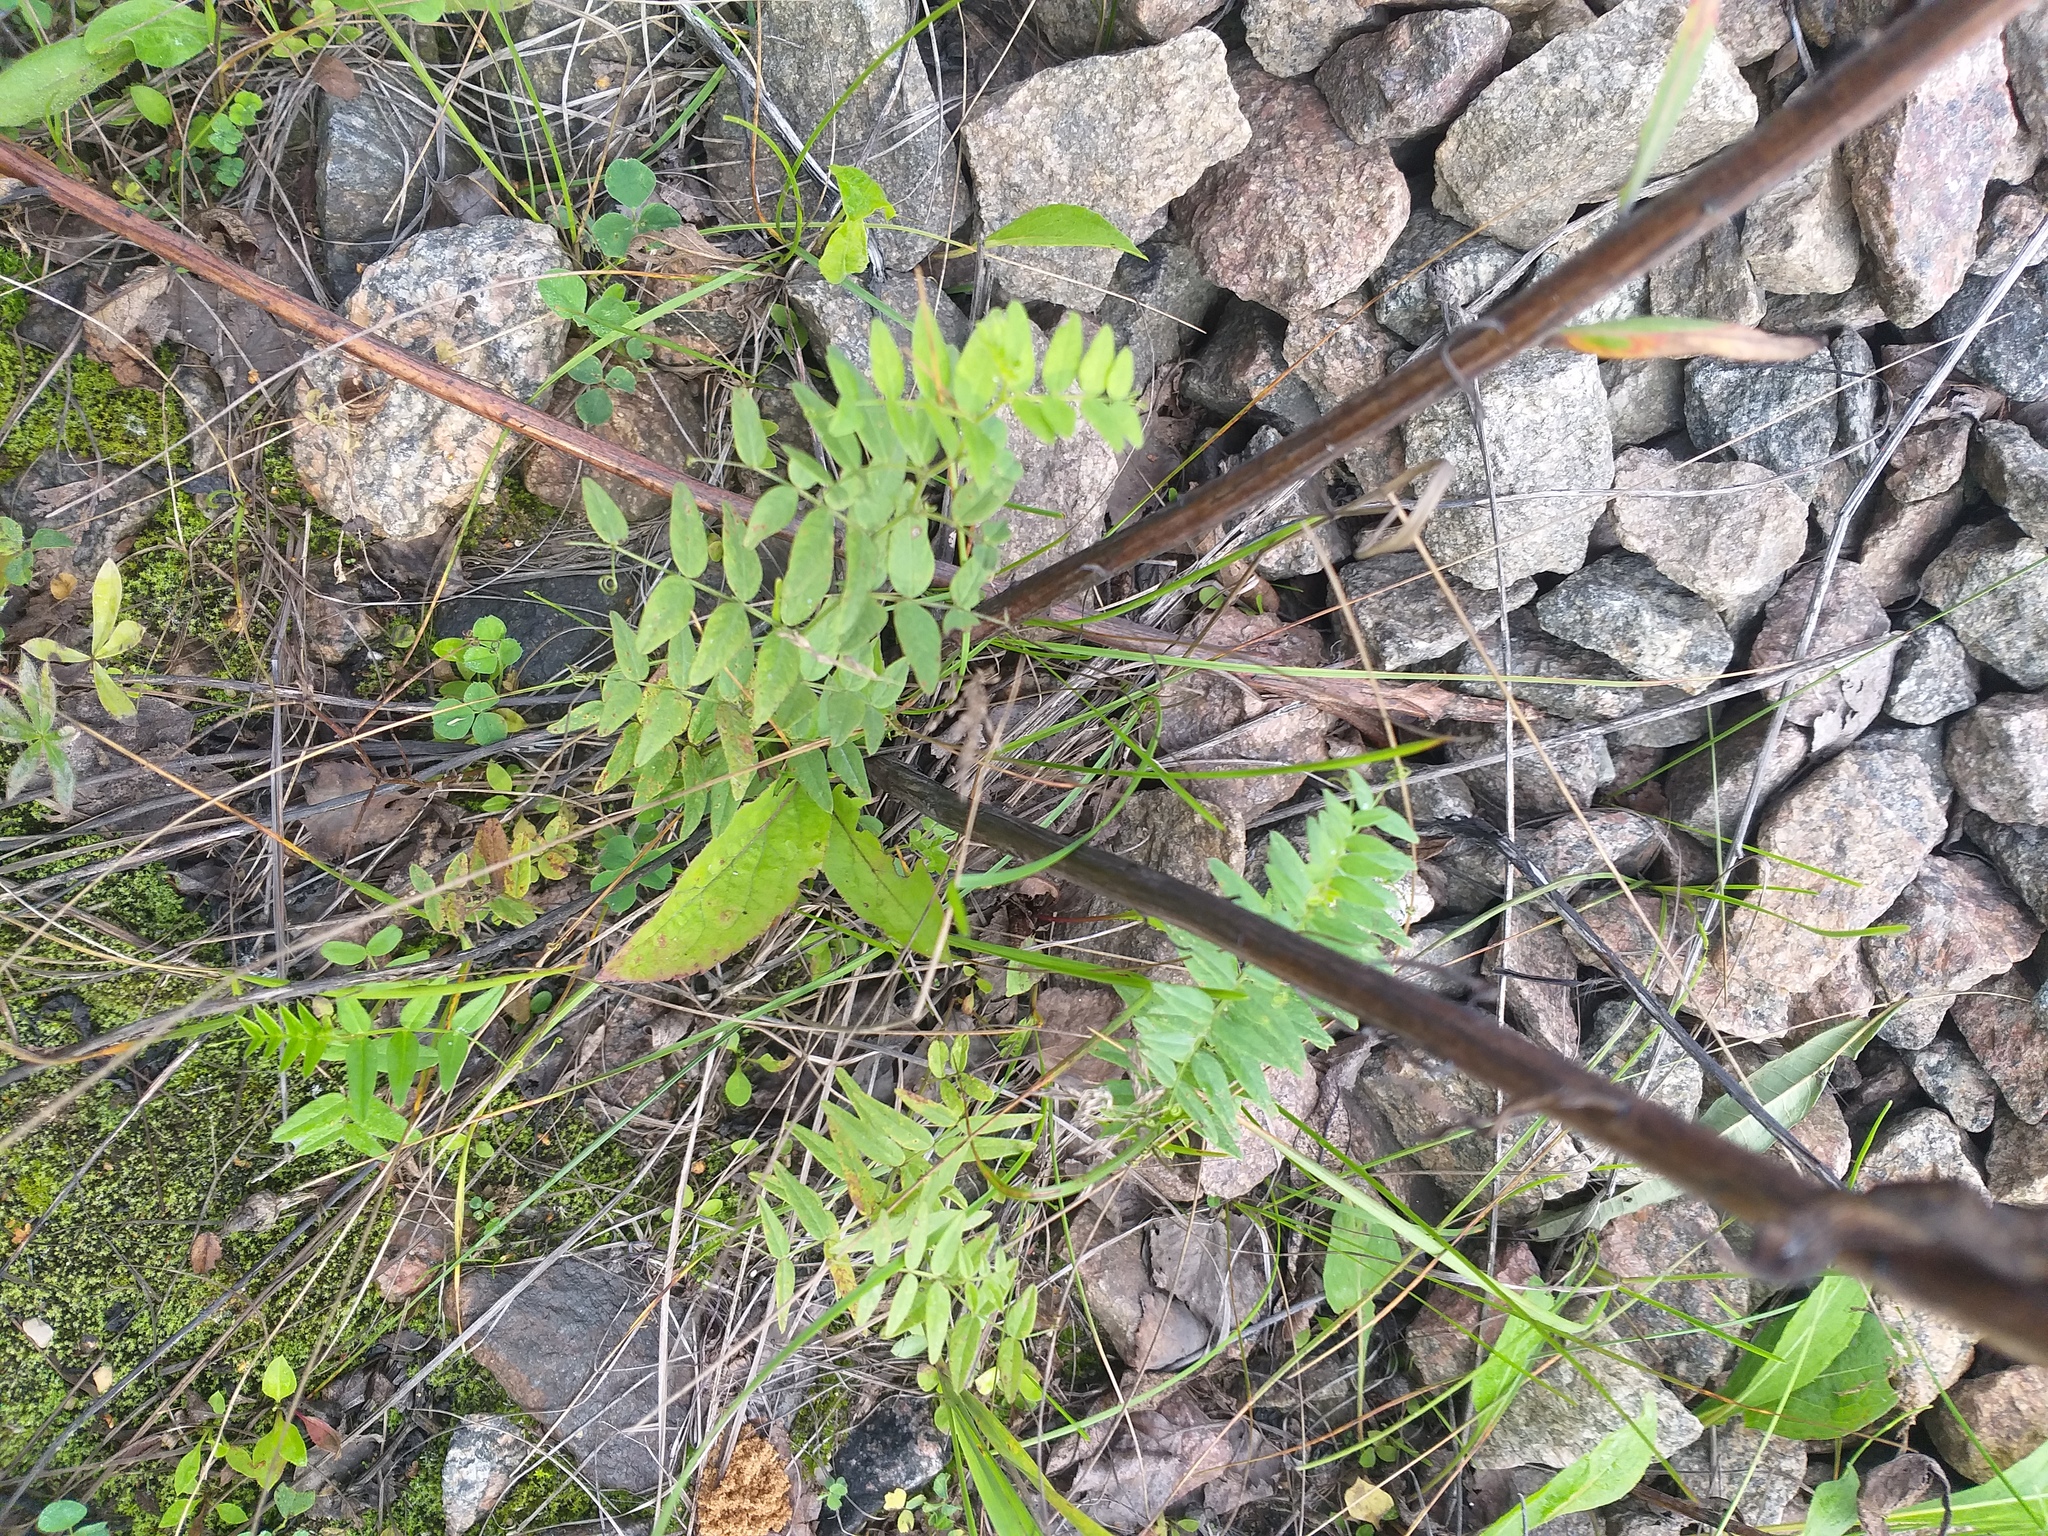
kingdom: Plantae
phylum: Tracheophyta
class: Magnoliopsida
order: Fabales
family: Fabaceae
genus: Vicia
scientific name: Vicia sepium
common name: Bush vetch
